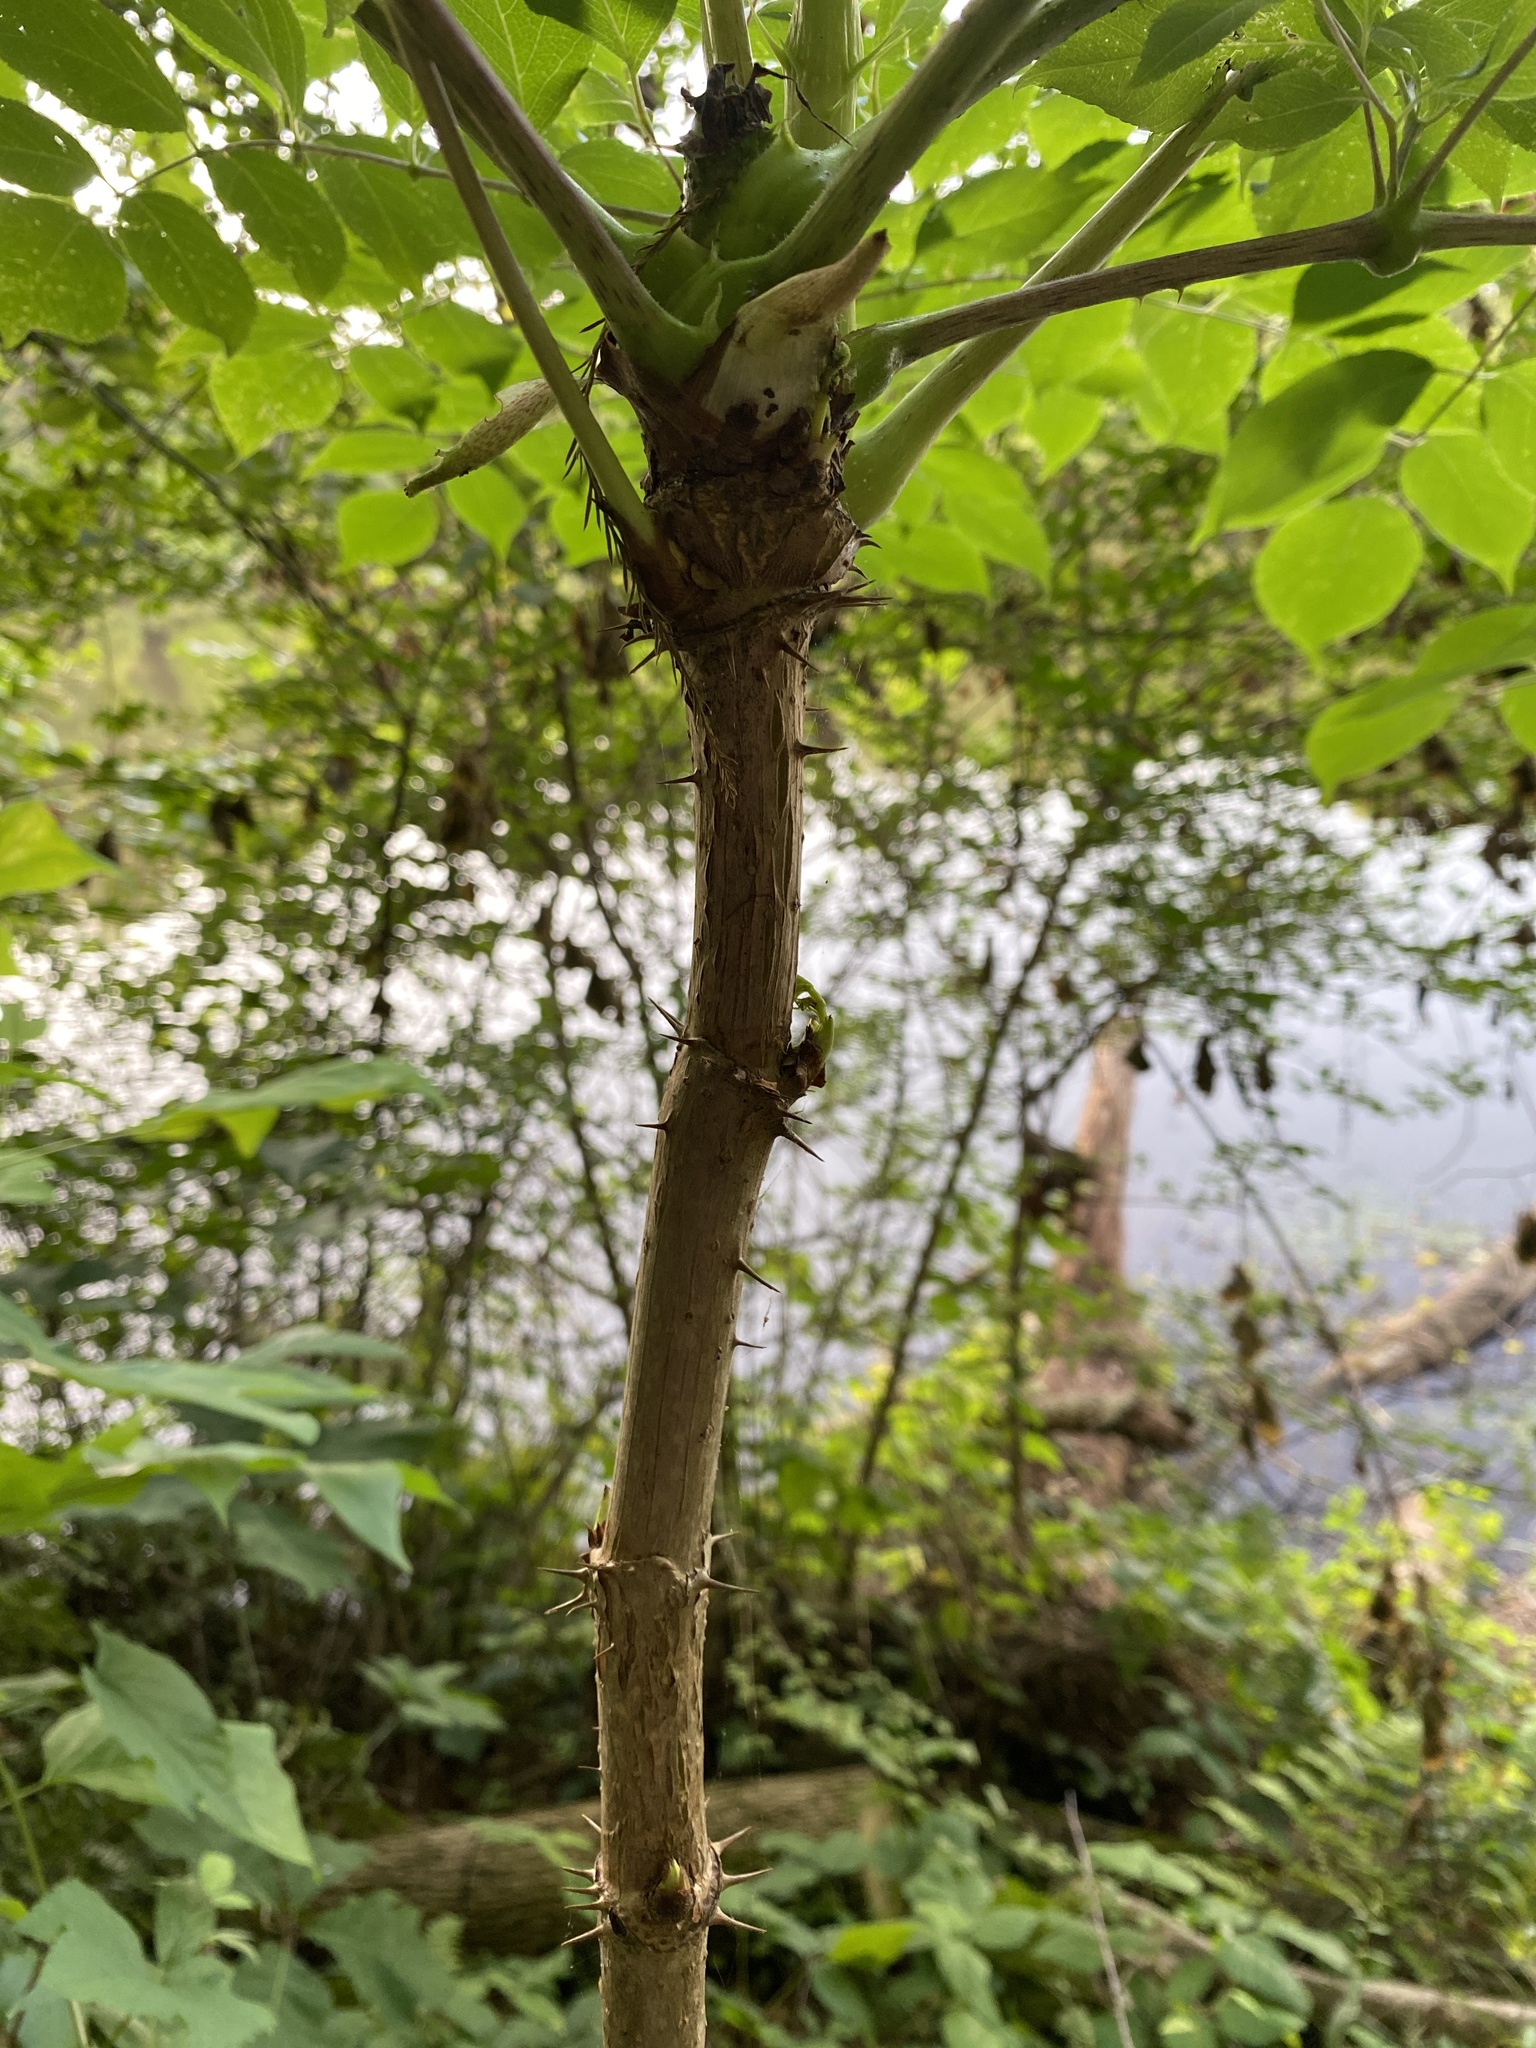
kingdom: Plantae
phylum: Tracheophyta
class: Magnoliopsida
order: Apiales
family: Araliaceae
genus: Aralia
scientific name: Aralia spinosa
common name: Hercules'-club
